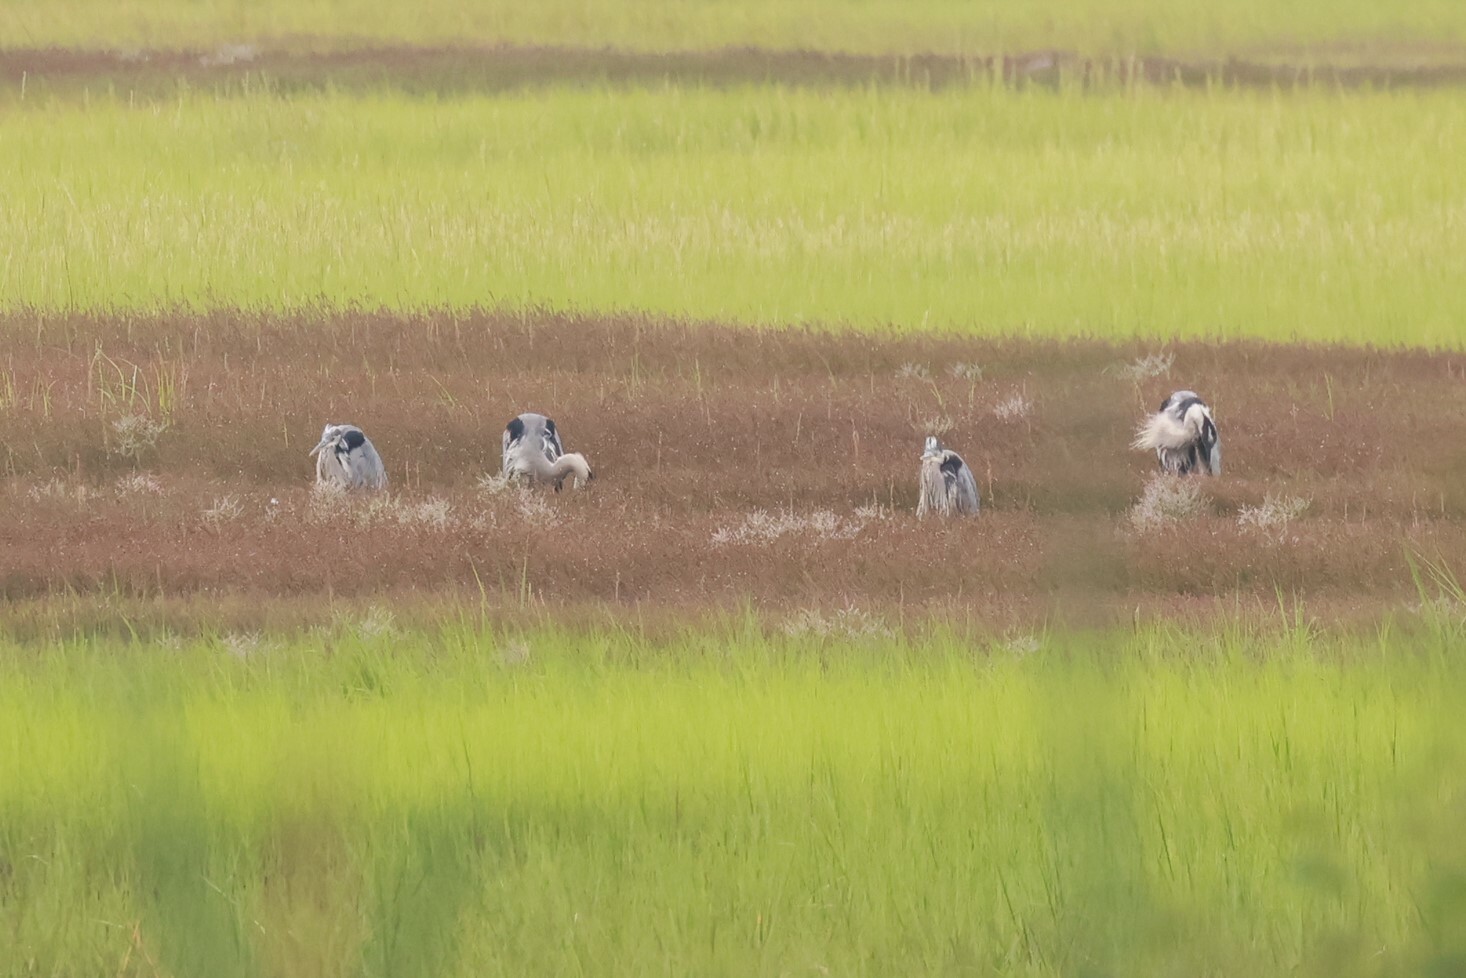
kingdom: Animalia
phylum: Chordata
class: Aves
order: Pelecaniformes
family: Ardeidae
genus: Ardea
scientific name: Ardea herodias
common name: Great blue heron
